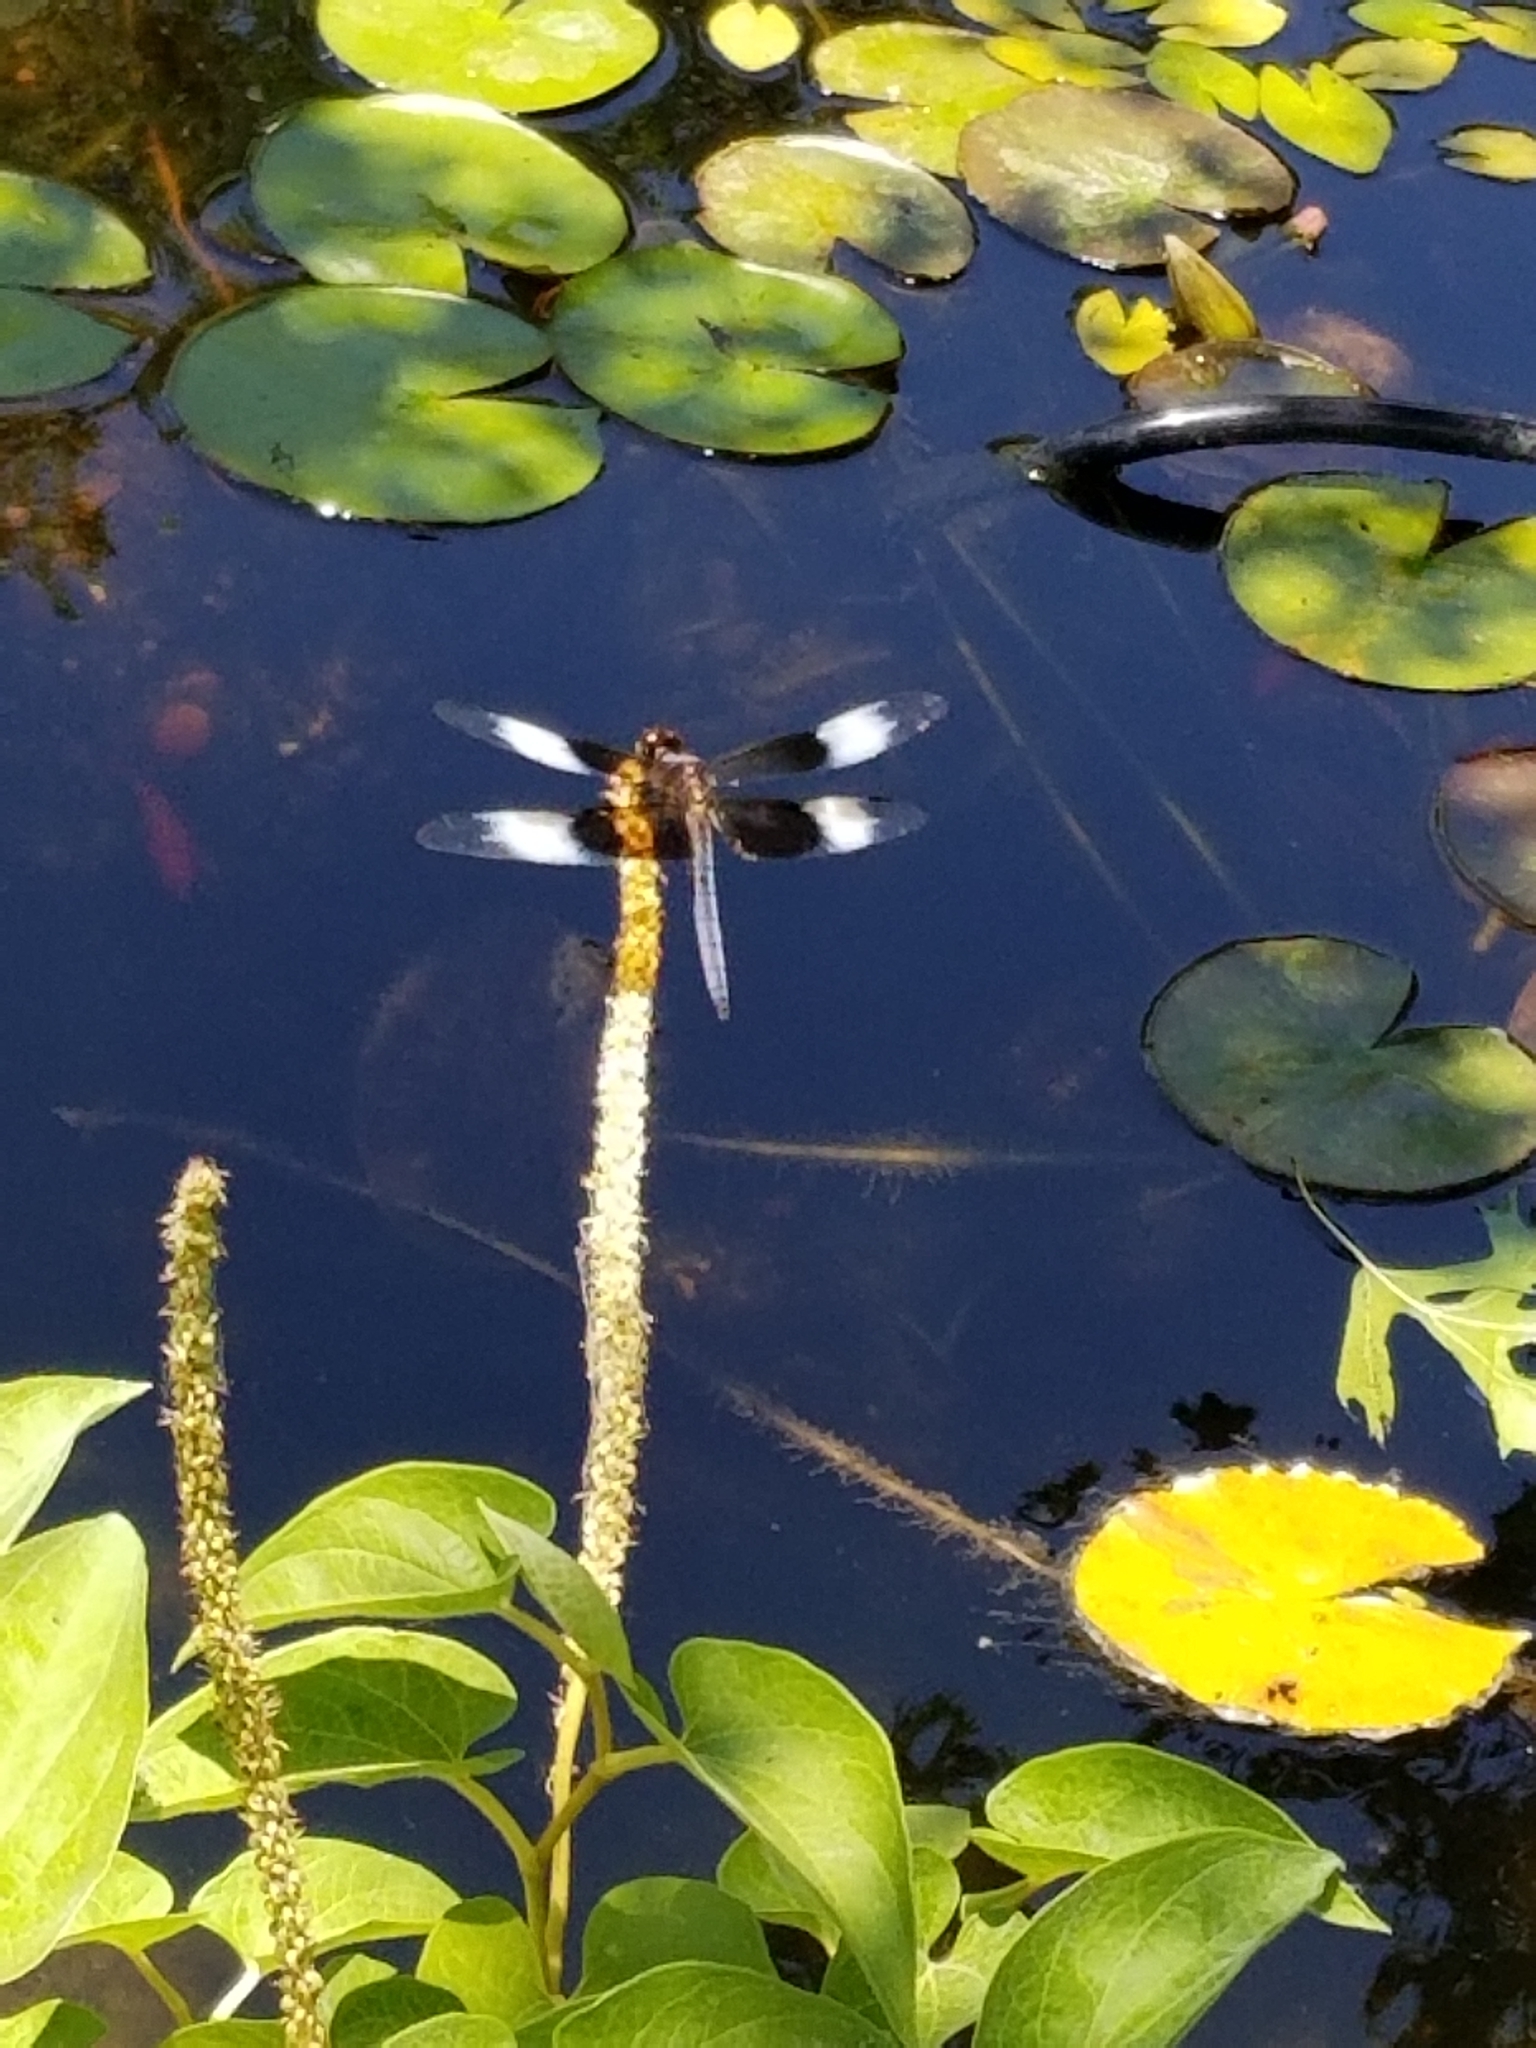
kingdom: Animalia
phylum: Arthropoda
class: Insecta
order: Odonata
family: Libellulidae
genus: Libellula
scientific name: Libellula luctuosa
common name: Widow skimmer
